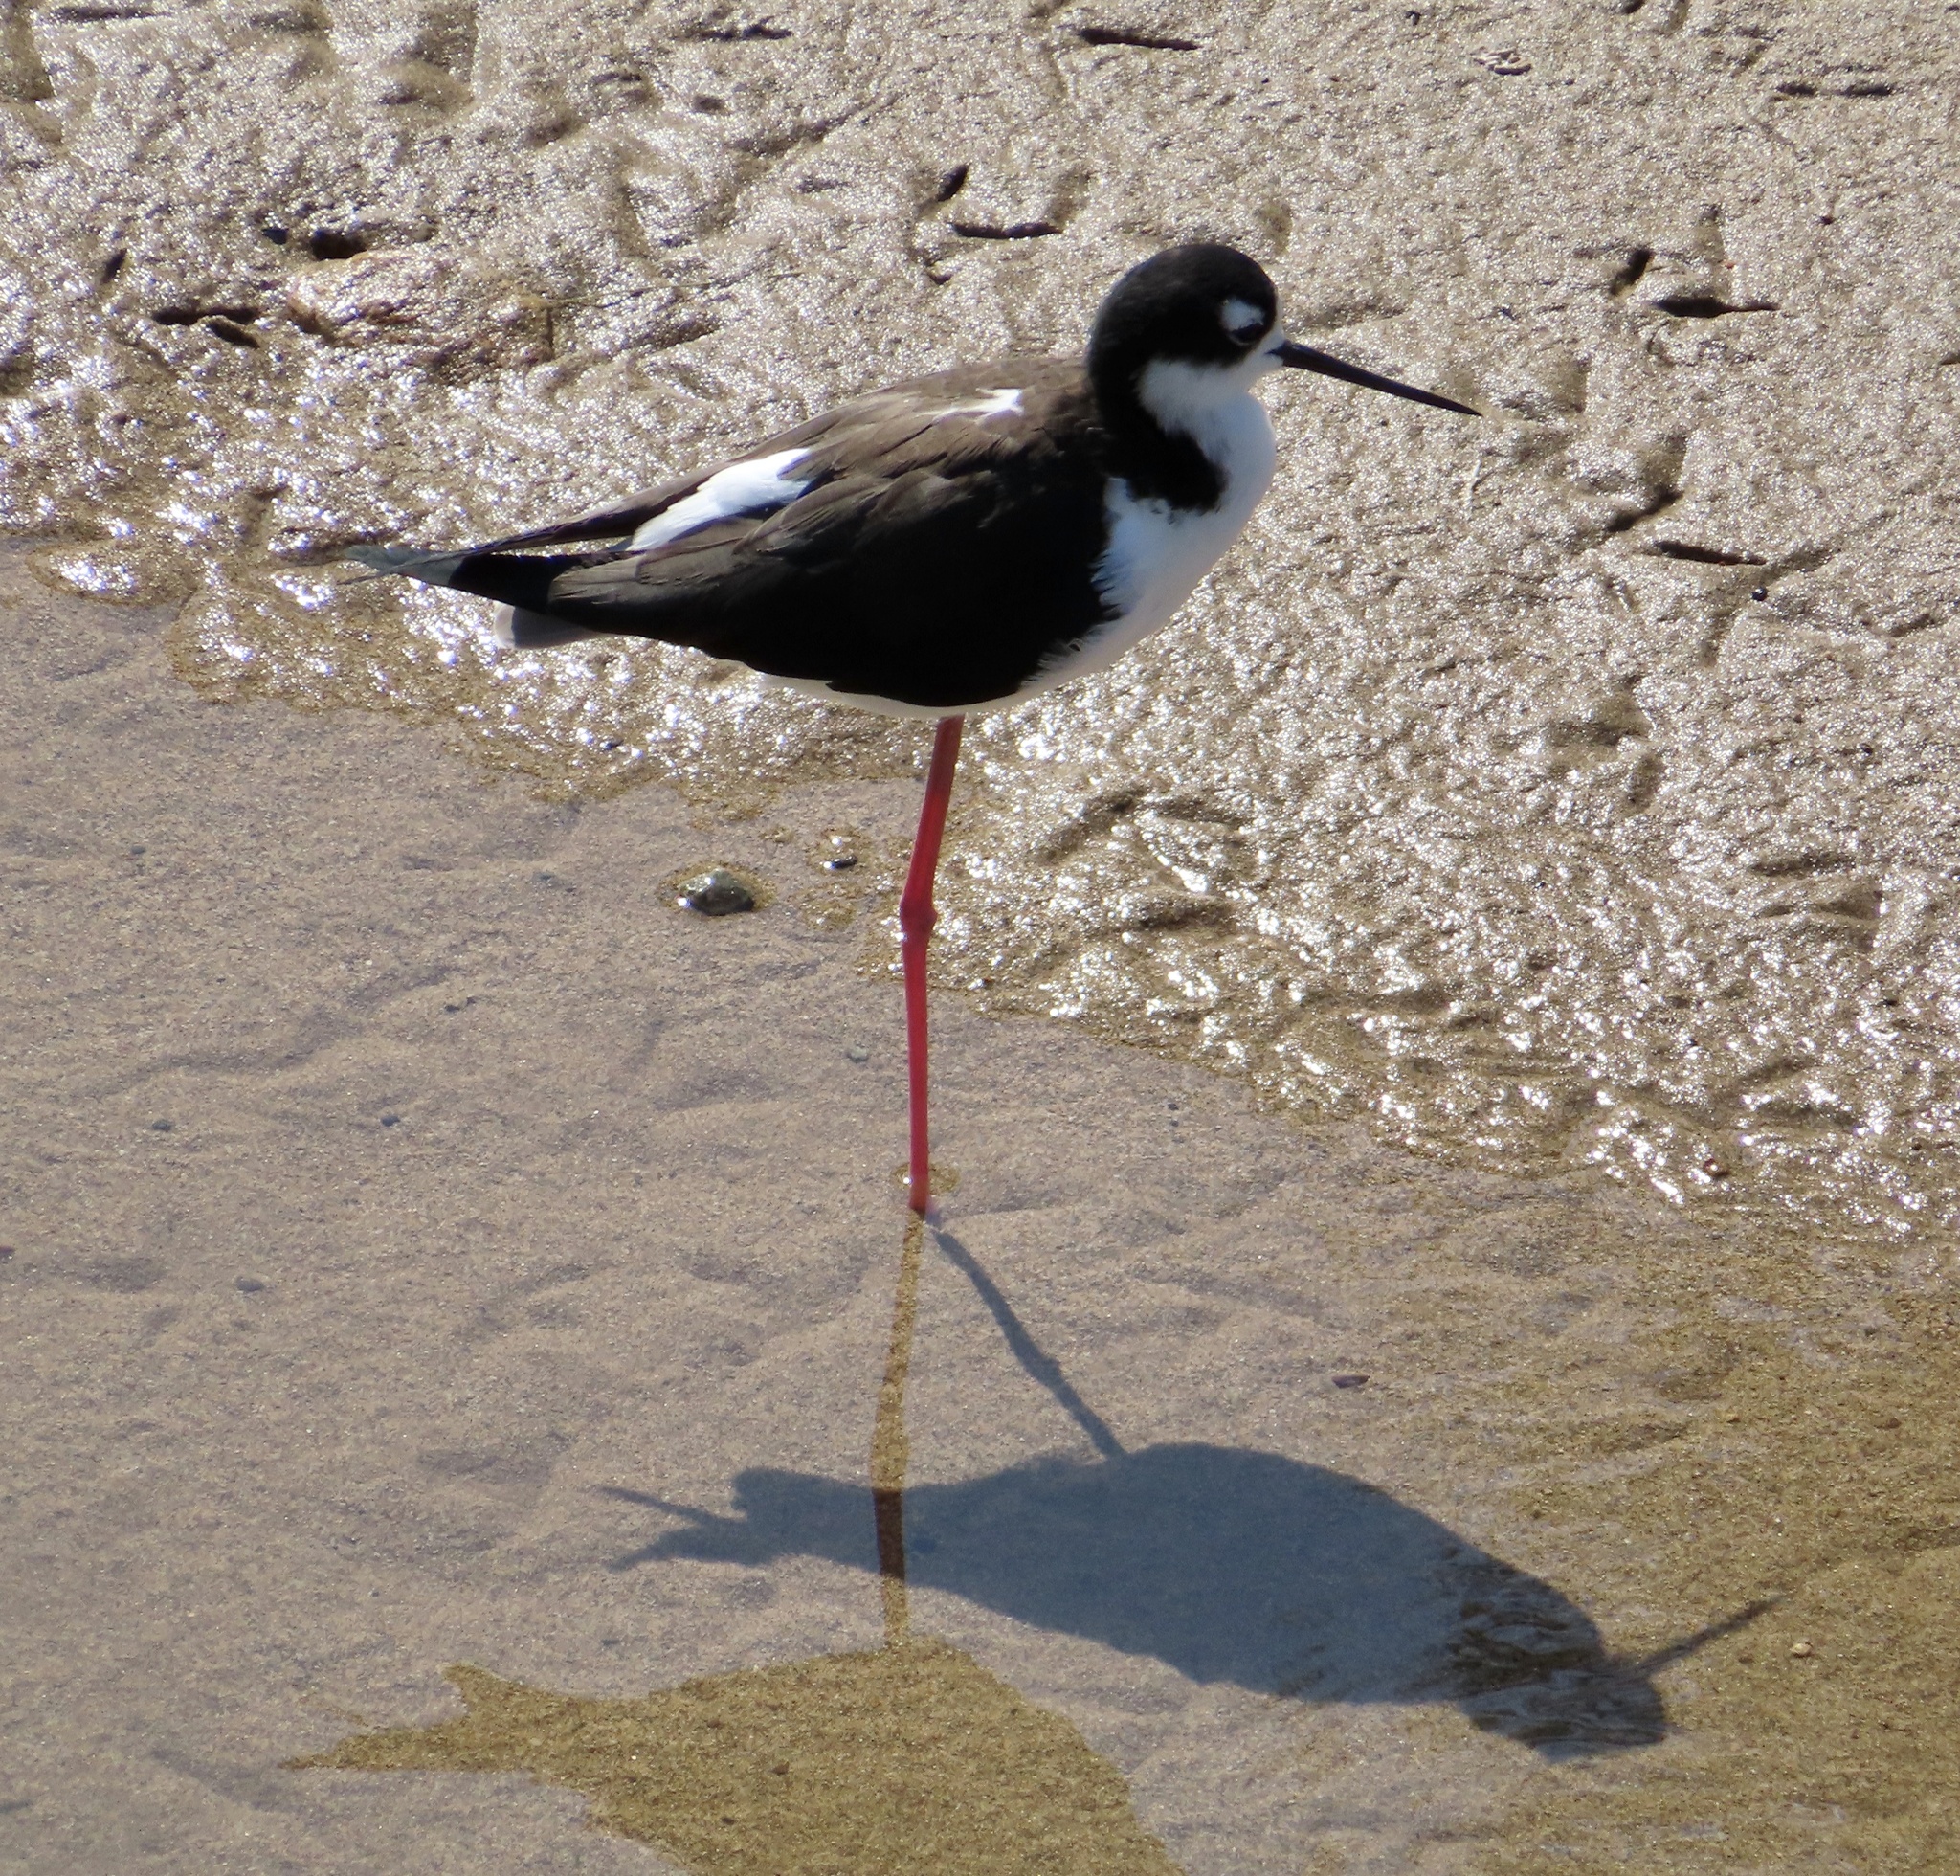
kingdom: Animalia
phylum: Chordata
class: Aves
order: Charadriiformes
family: Recurvirostridae
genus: Himantopus
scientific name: Himantopus mexicanus
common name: Black-necked stilt
